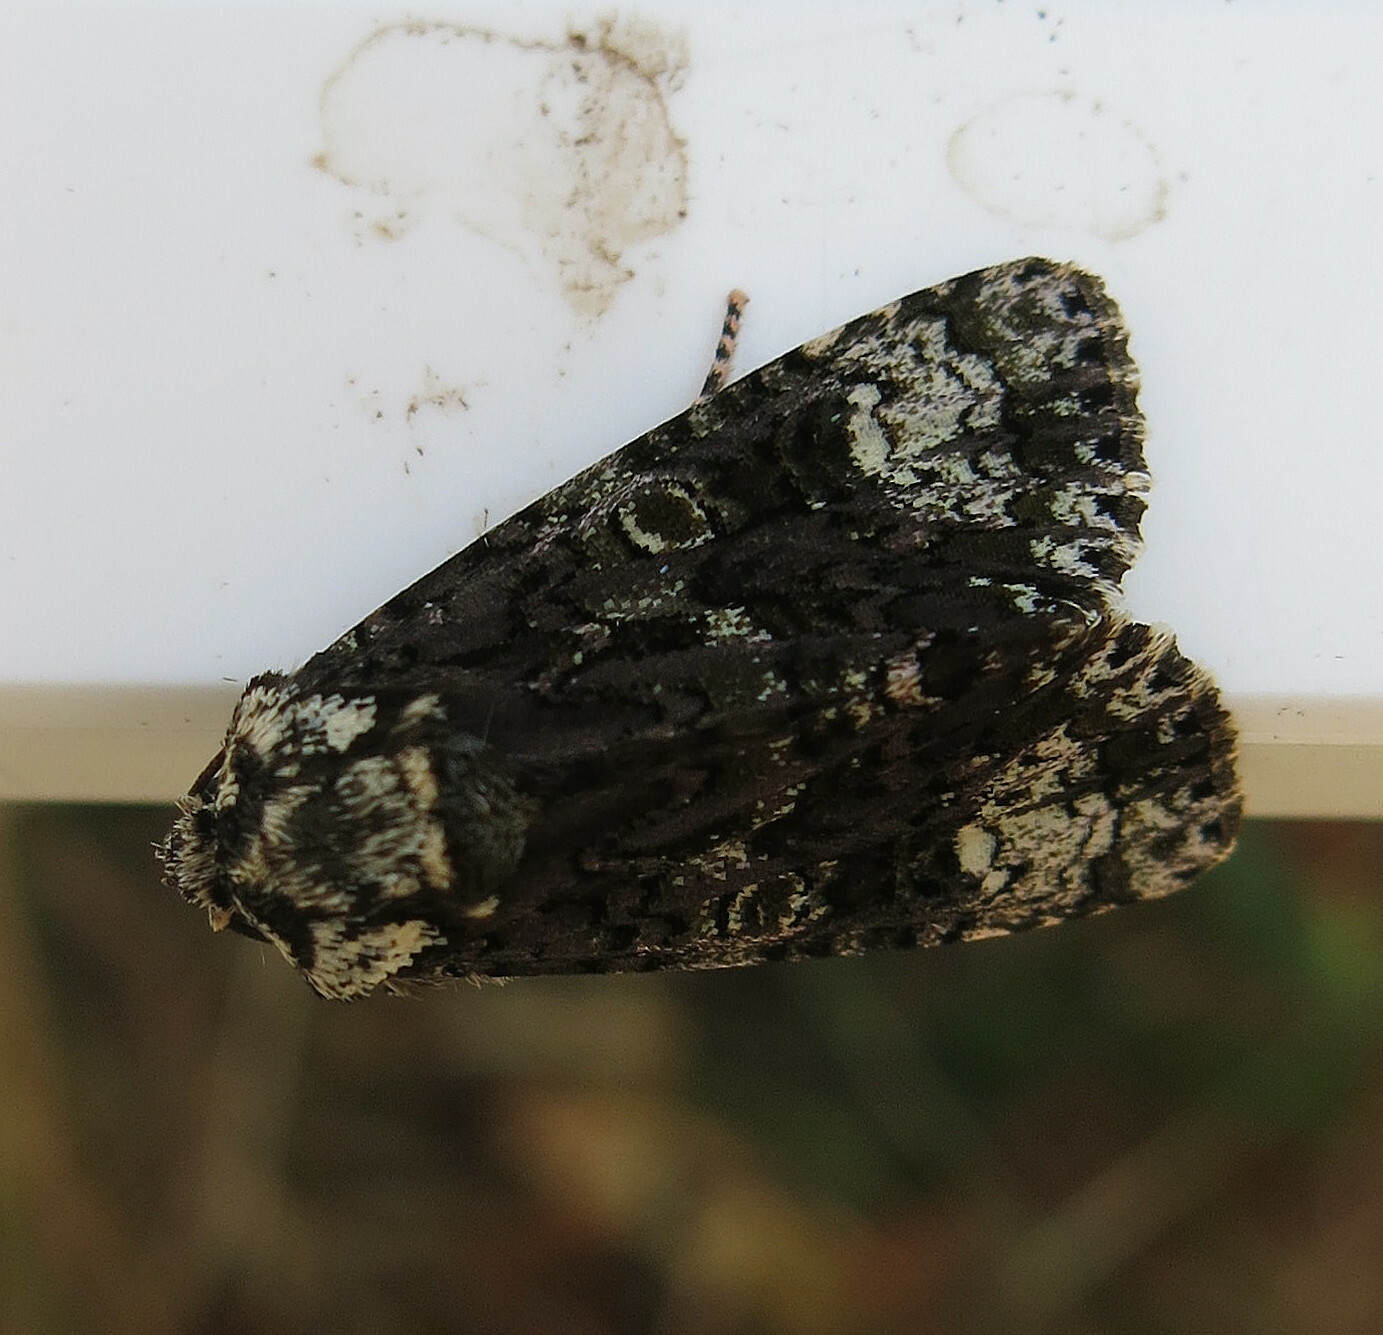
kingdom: Animalia
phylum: Arthropoda
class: Insecta
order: Lepidoptera
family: Noctuidae
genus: Craniophora
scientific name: Craniophora ligustri
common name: Coronet
